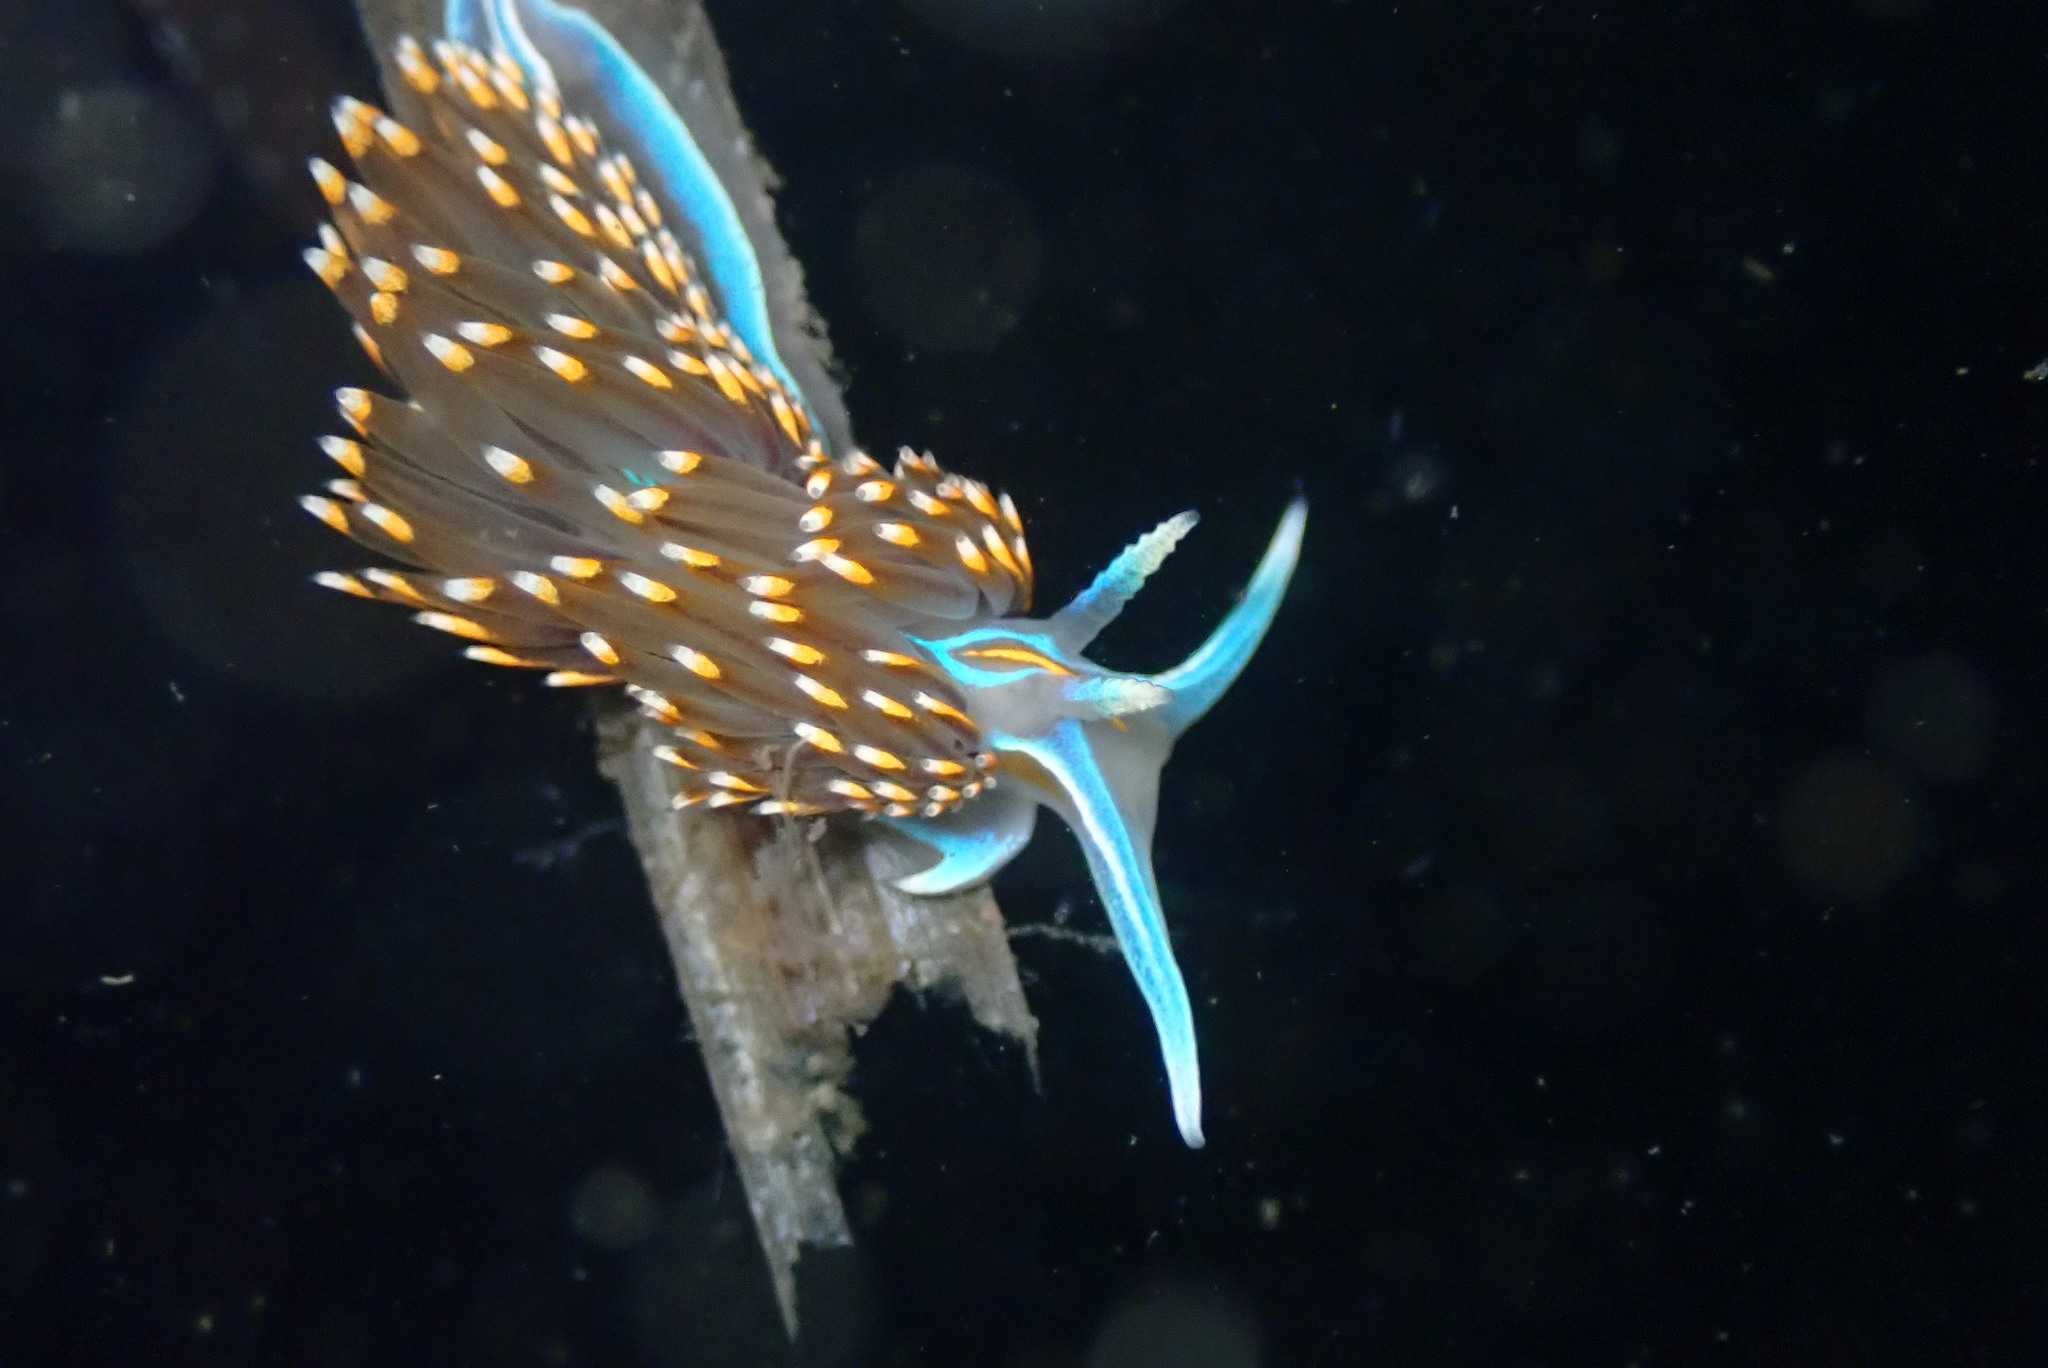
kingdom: Animalia
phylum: Mollusca
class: Gastropoda
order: Nudibranchia
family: Myrrhinidae
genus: Hermissenda
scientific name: Hermissenda opalescens
